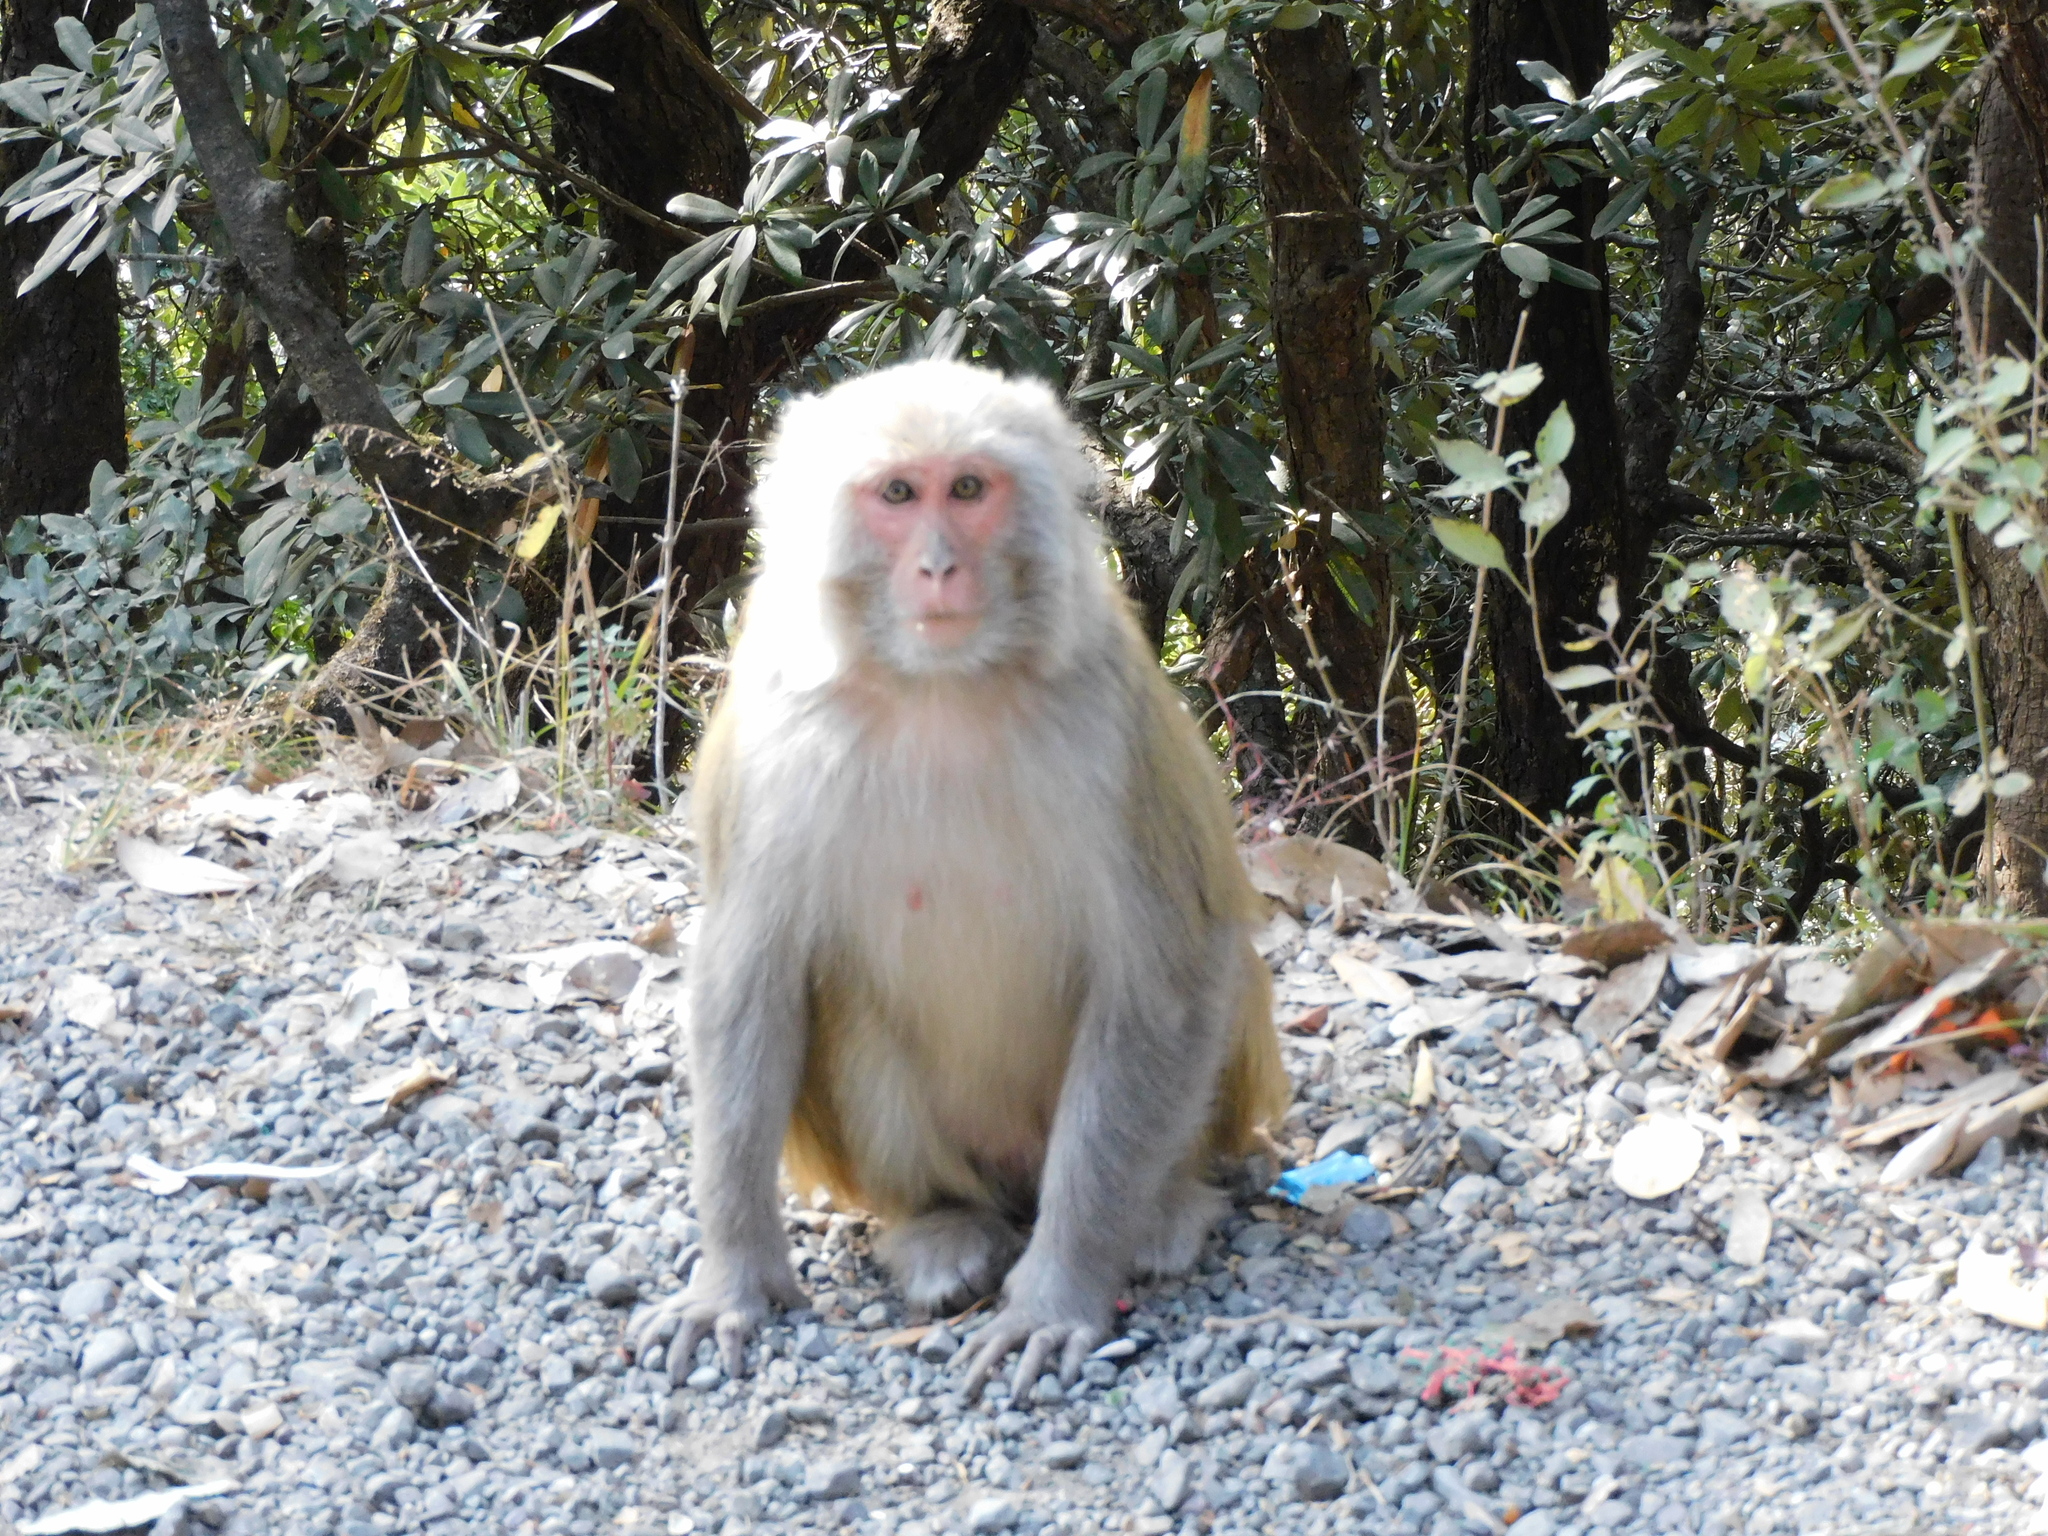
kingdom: Animalia
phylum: Chordata
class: Mammalia
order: Primates
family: Cercopithecidae
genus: Macaca
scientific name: Macaca mulatta
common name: Rhesus monkey
